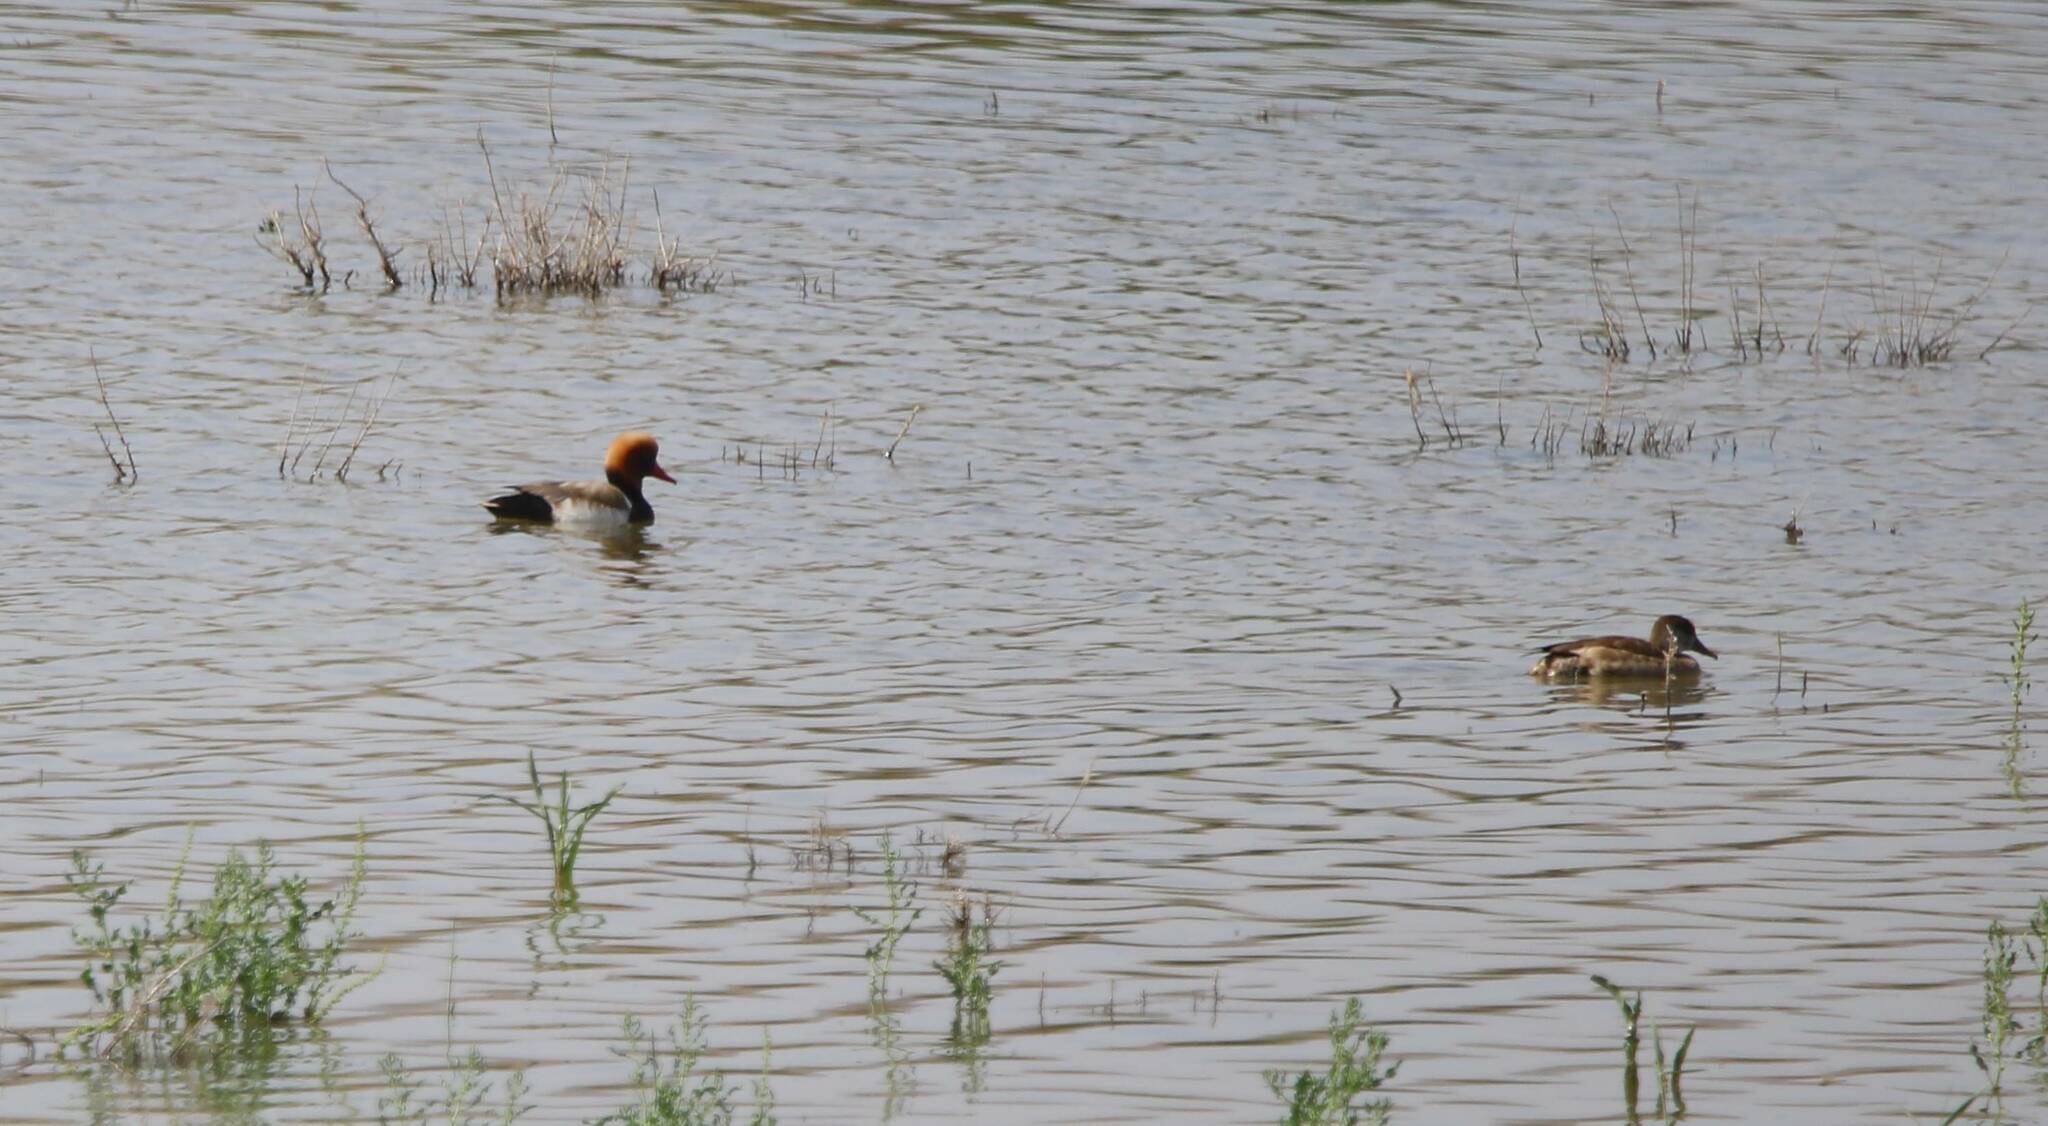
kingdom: Animalia
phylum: Chordata
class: Aves
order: Anseriformes
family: Anatidae
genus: Netta
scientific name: Netta rufina
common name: Red-crested pochard
